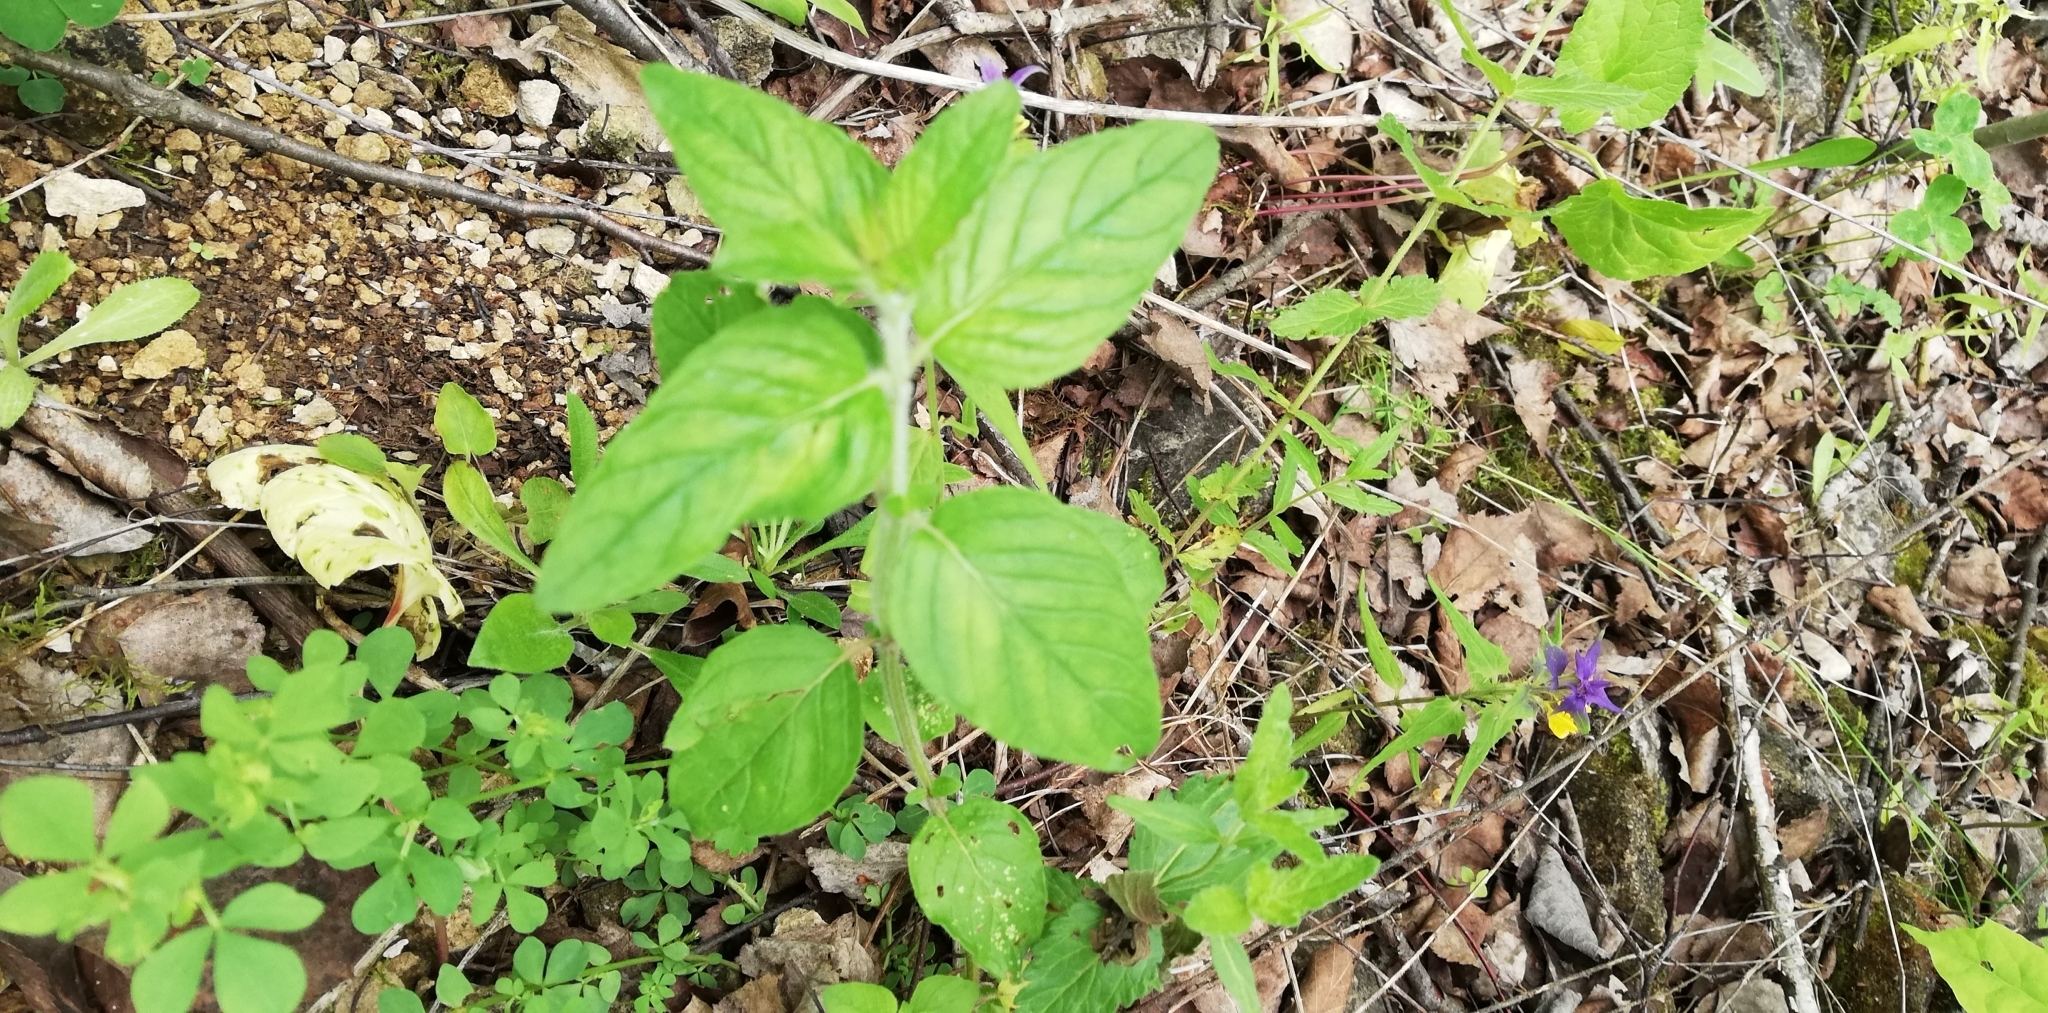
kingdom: Plantae
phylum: Tracheophyta
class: Magnoliopsida
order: Lamiales
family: Lamiaceae
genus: Clinopodium
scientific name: Clinopodium vulgare
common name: Wild basil
